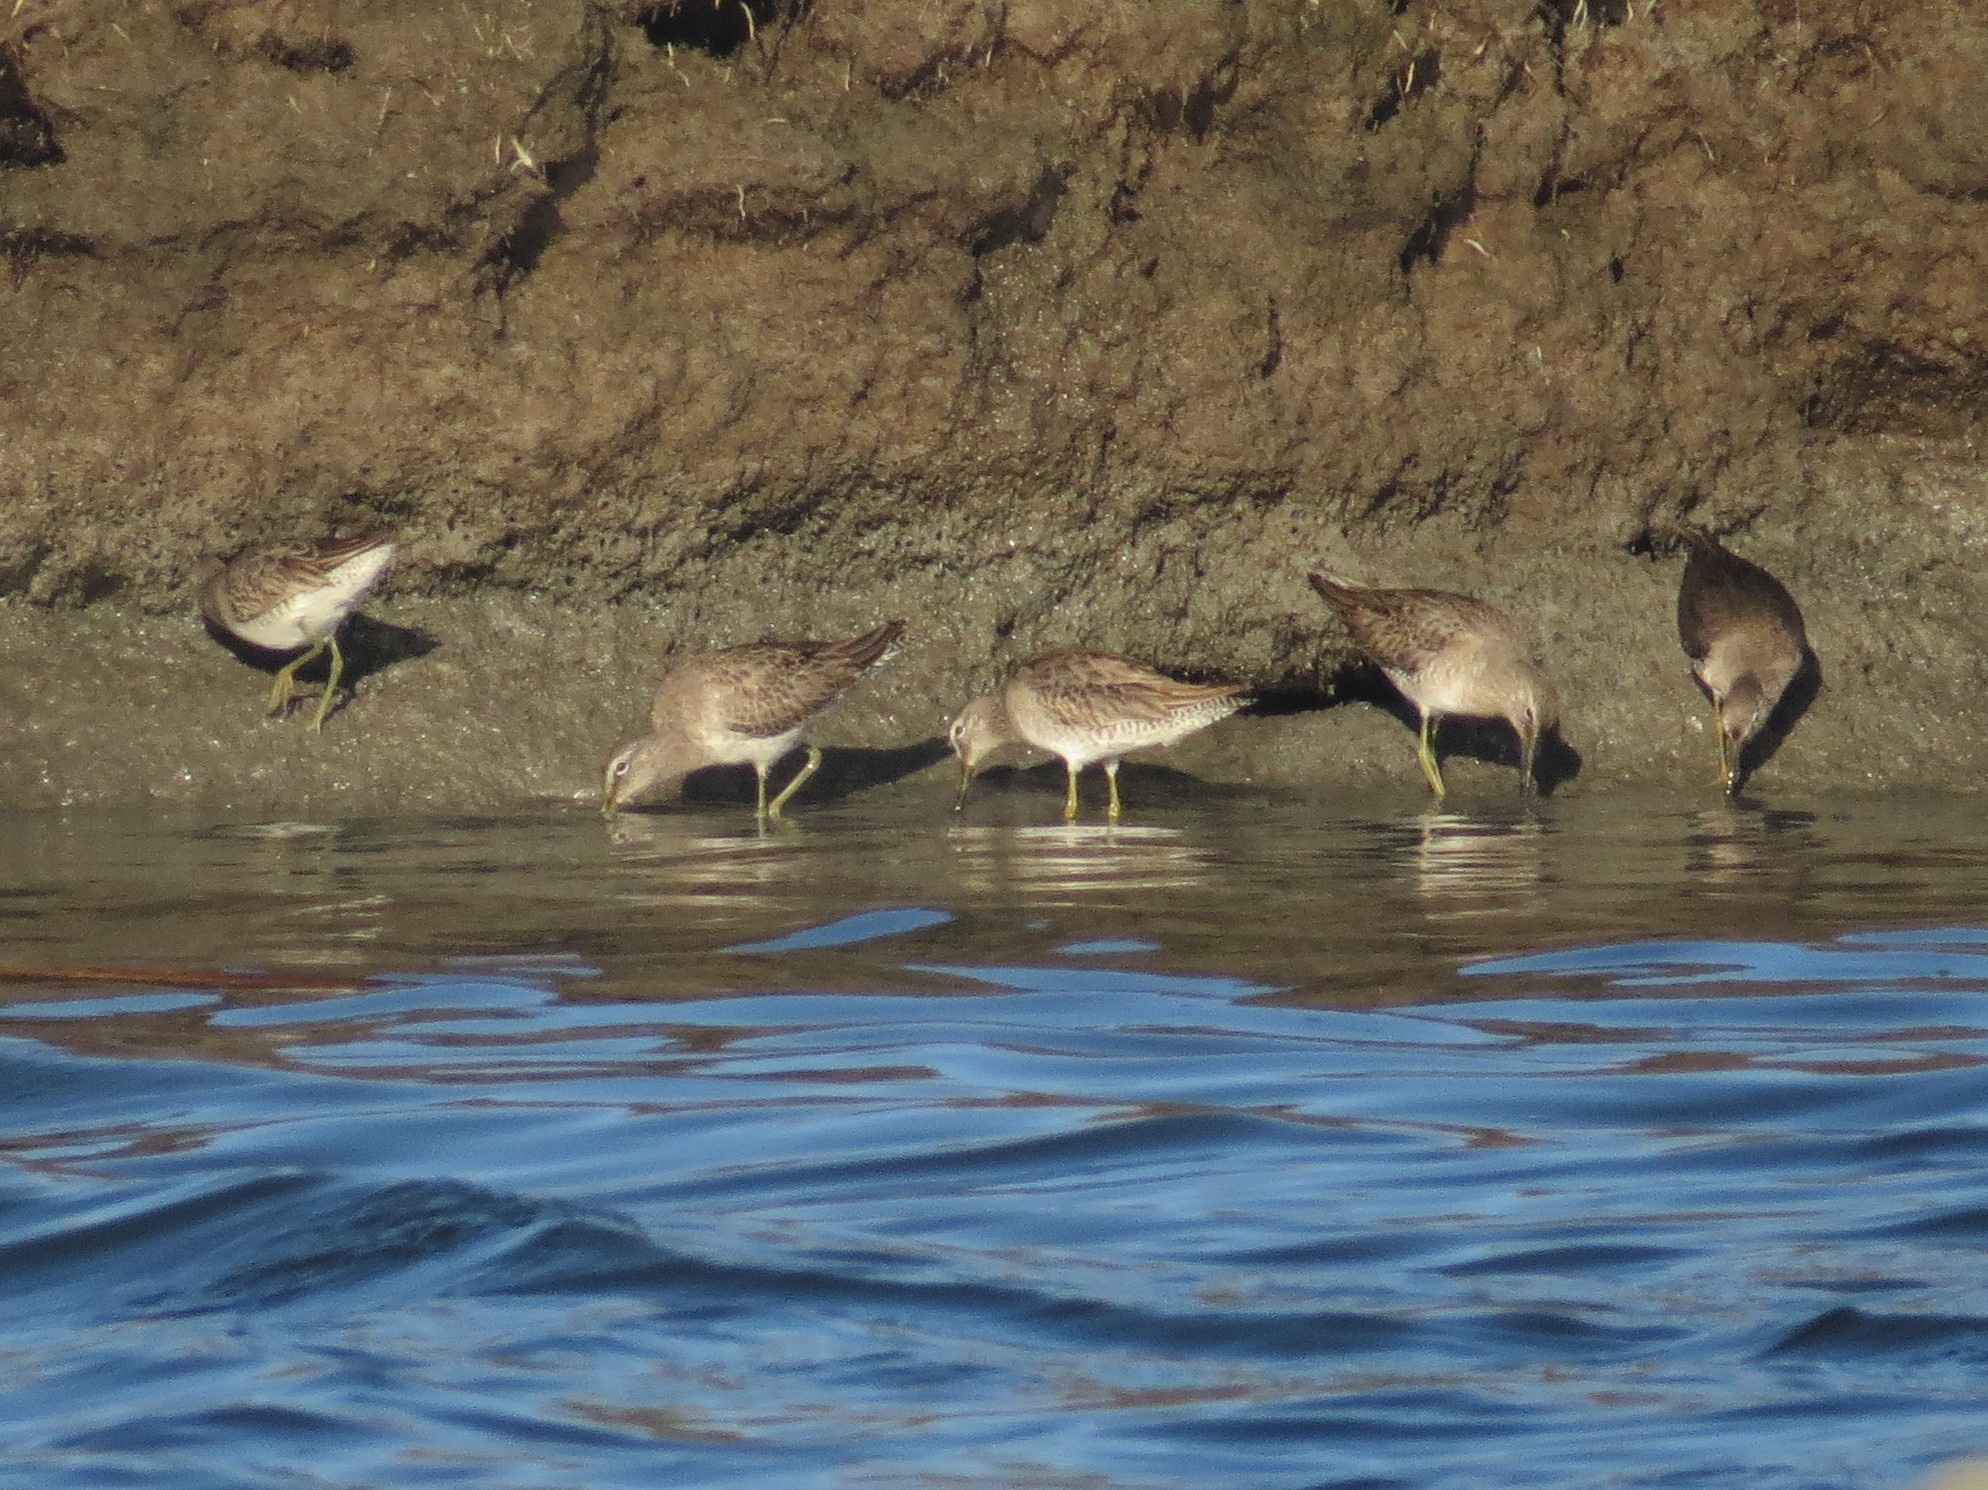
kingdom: Animalia
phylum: Chordata
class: Aves
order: Charadriiformes
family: Scolopacidae
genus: Limnodromus
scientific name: Limnodromus scolopaceus
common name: Long-billed dowitcher
